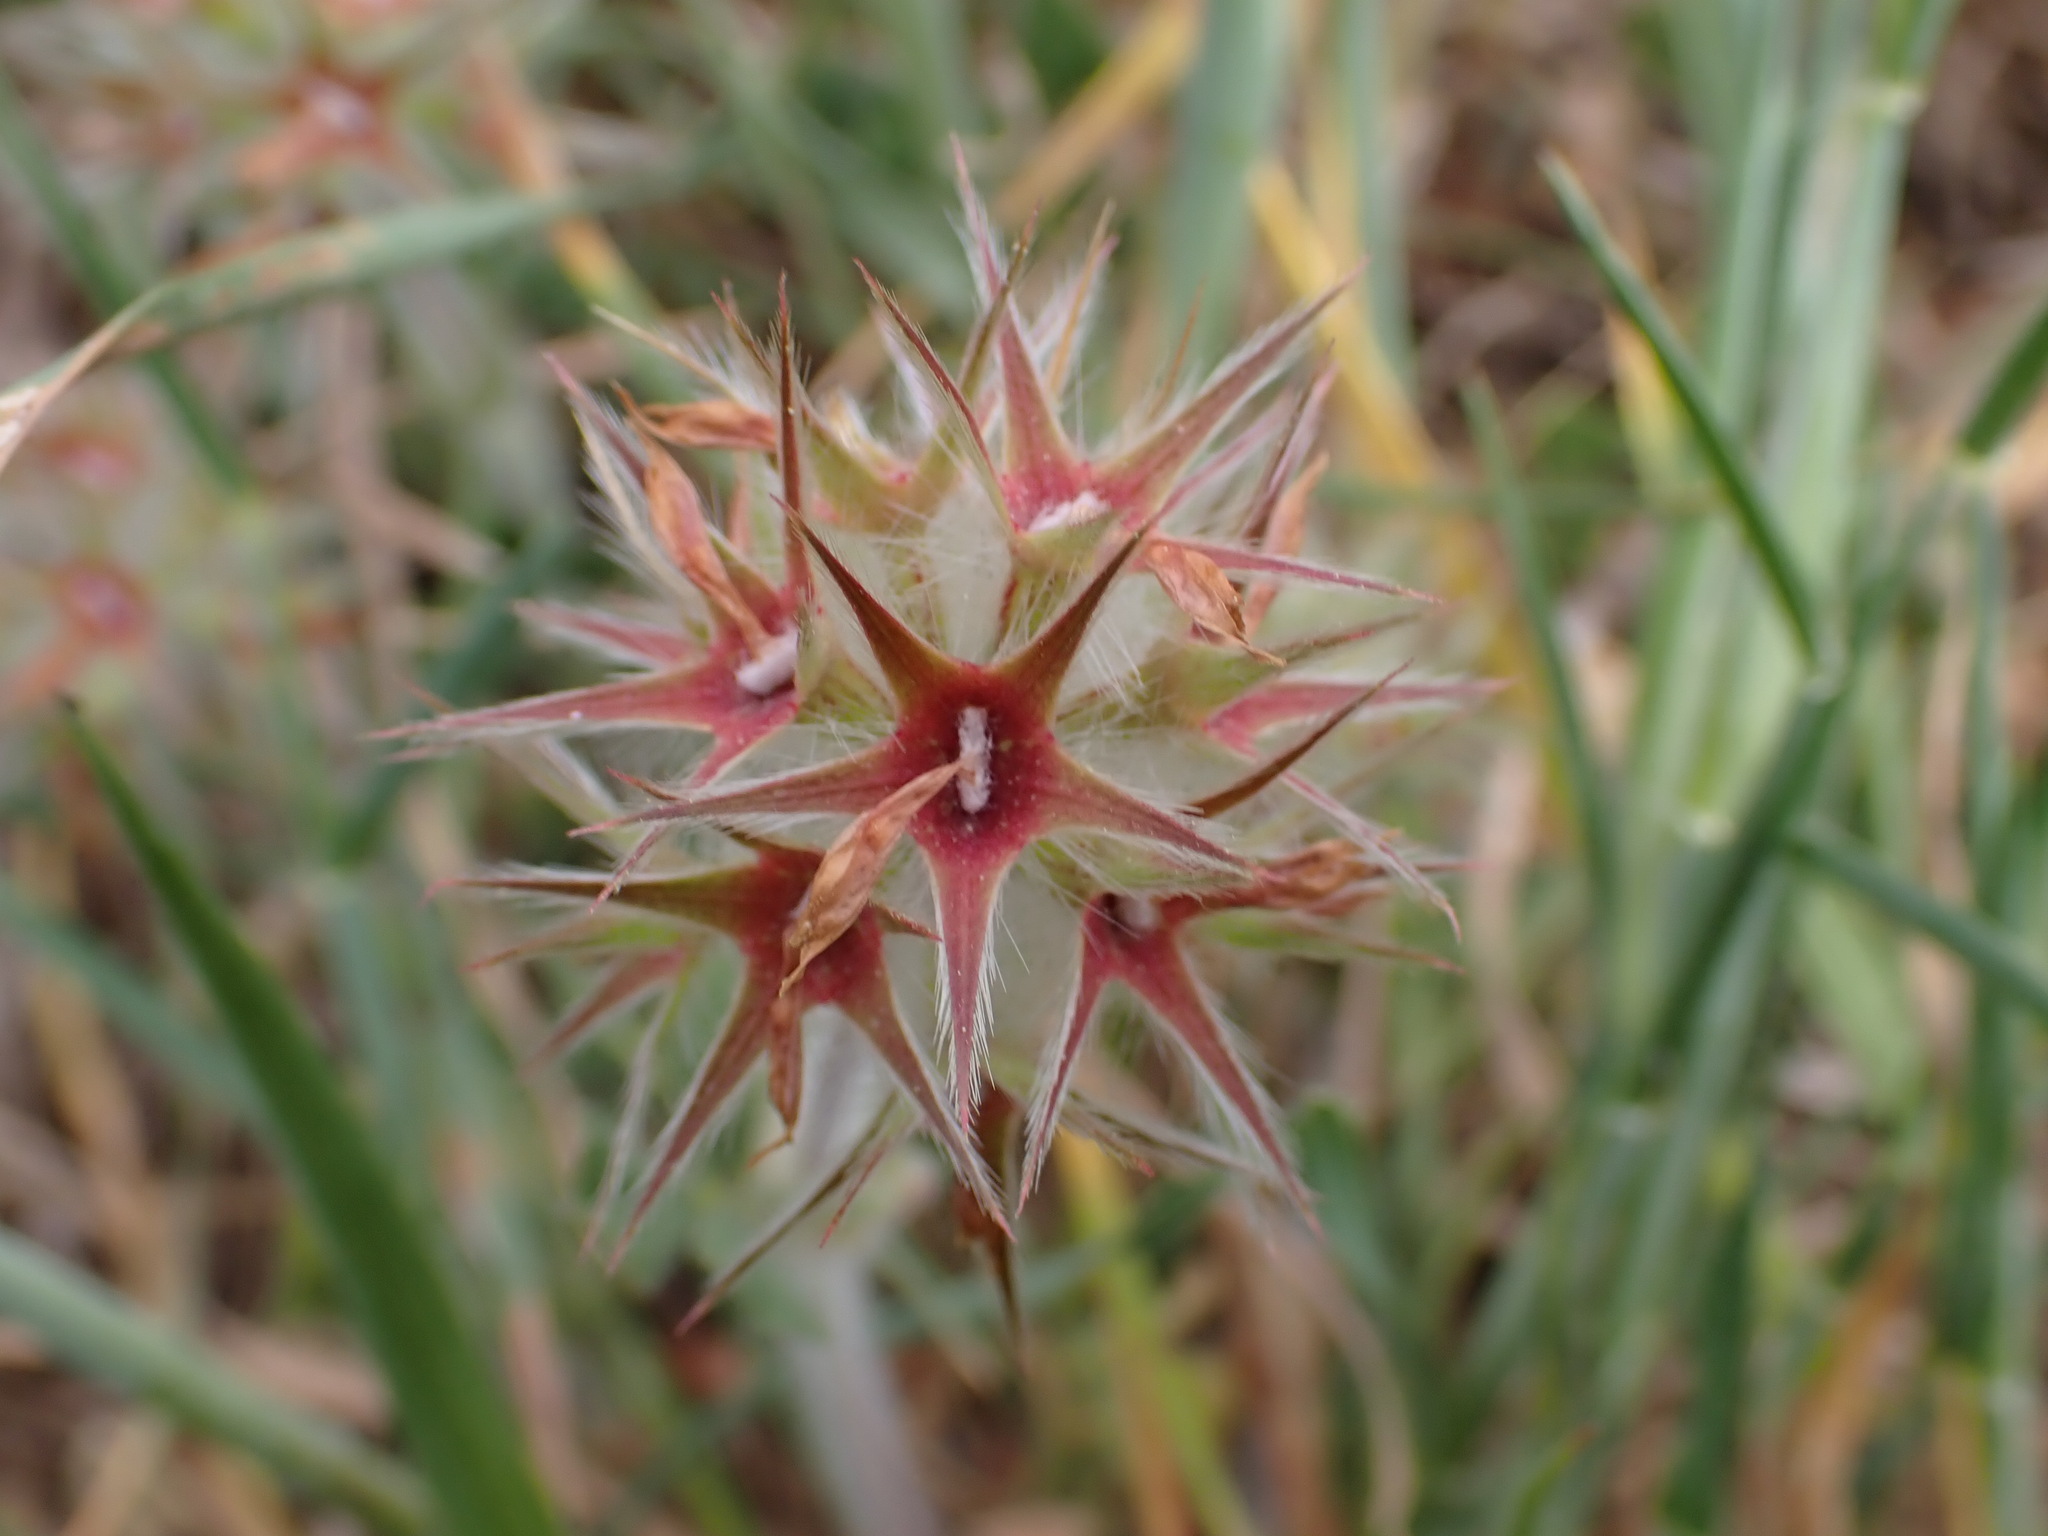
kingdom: Plantae
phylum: Tracheophyta
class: Magnoliopsida
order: Fabales
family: Fabaceae
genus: Trifolium
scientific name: Trifolium stellatum
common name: Starry clover
